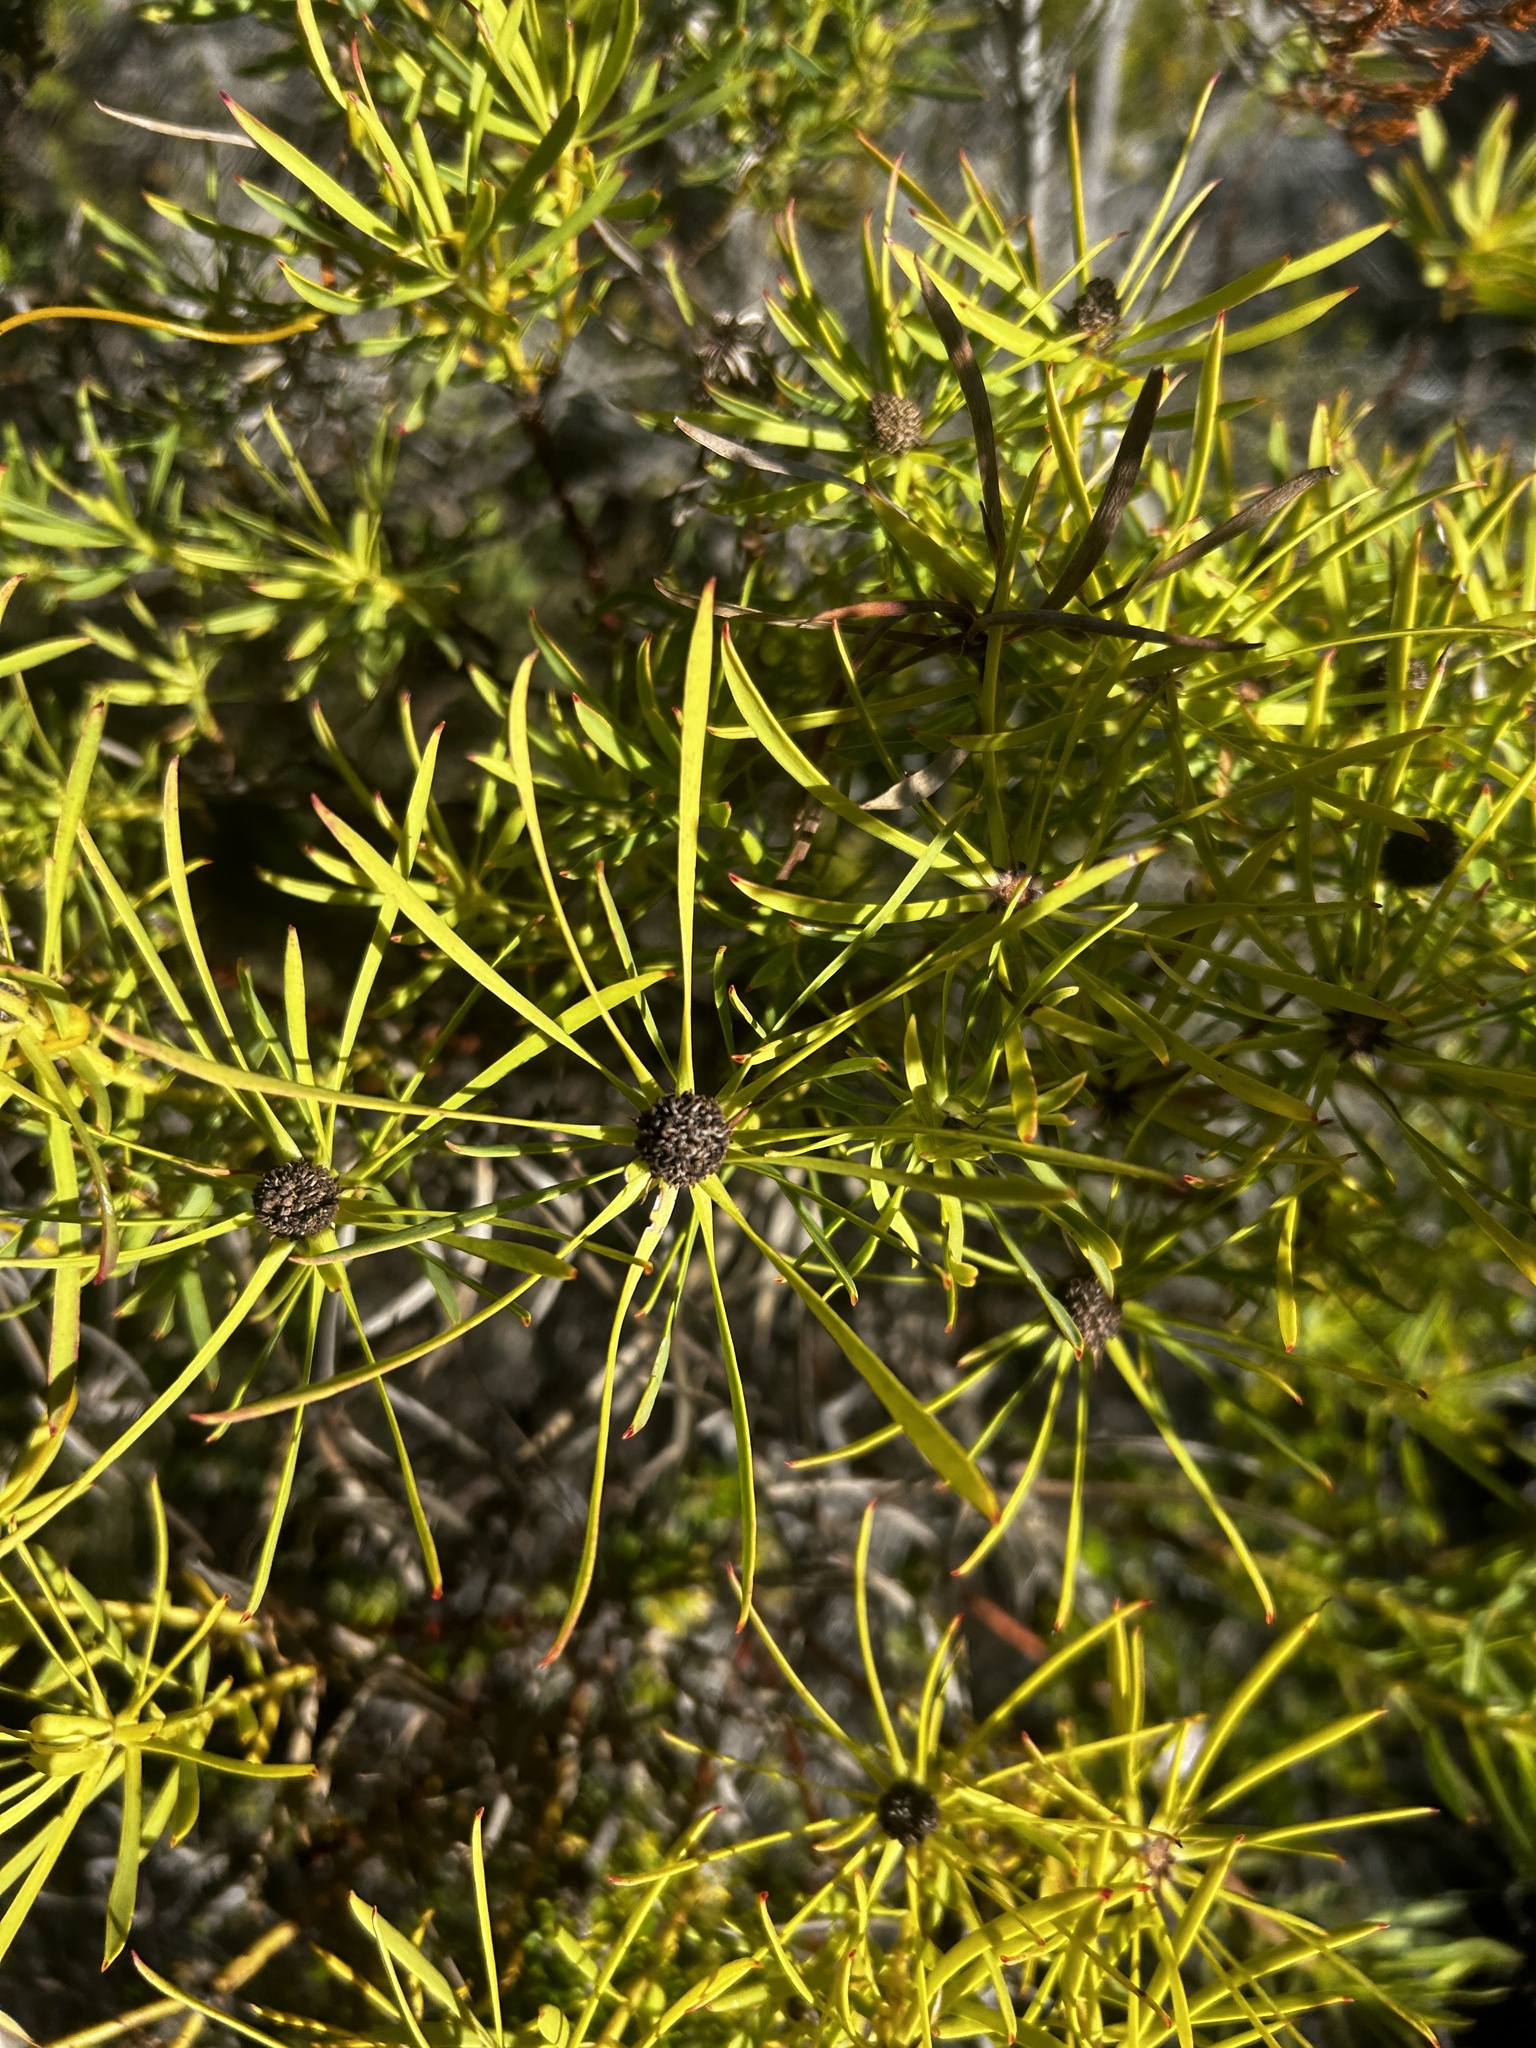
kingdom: Plantae
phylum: Tracheophyta
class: Magnoliopsida
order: Proteales
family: Proteaceae
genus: Leucadendron
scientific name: Leucadendron salignum
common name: Common sunshine conebush
